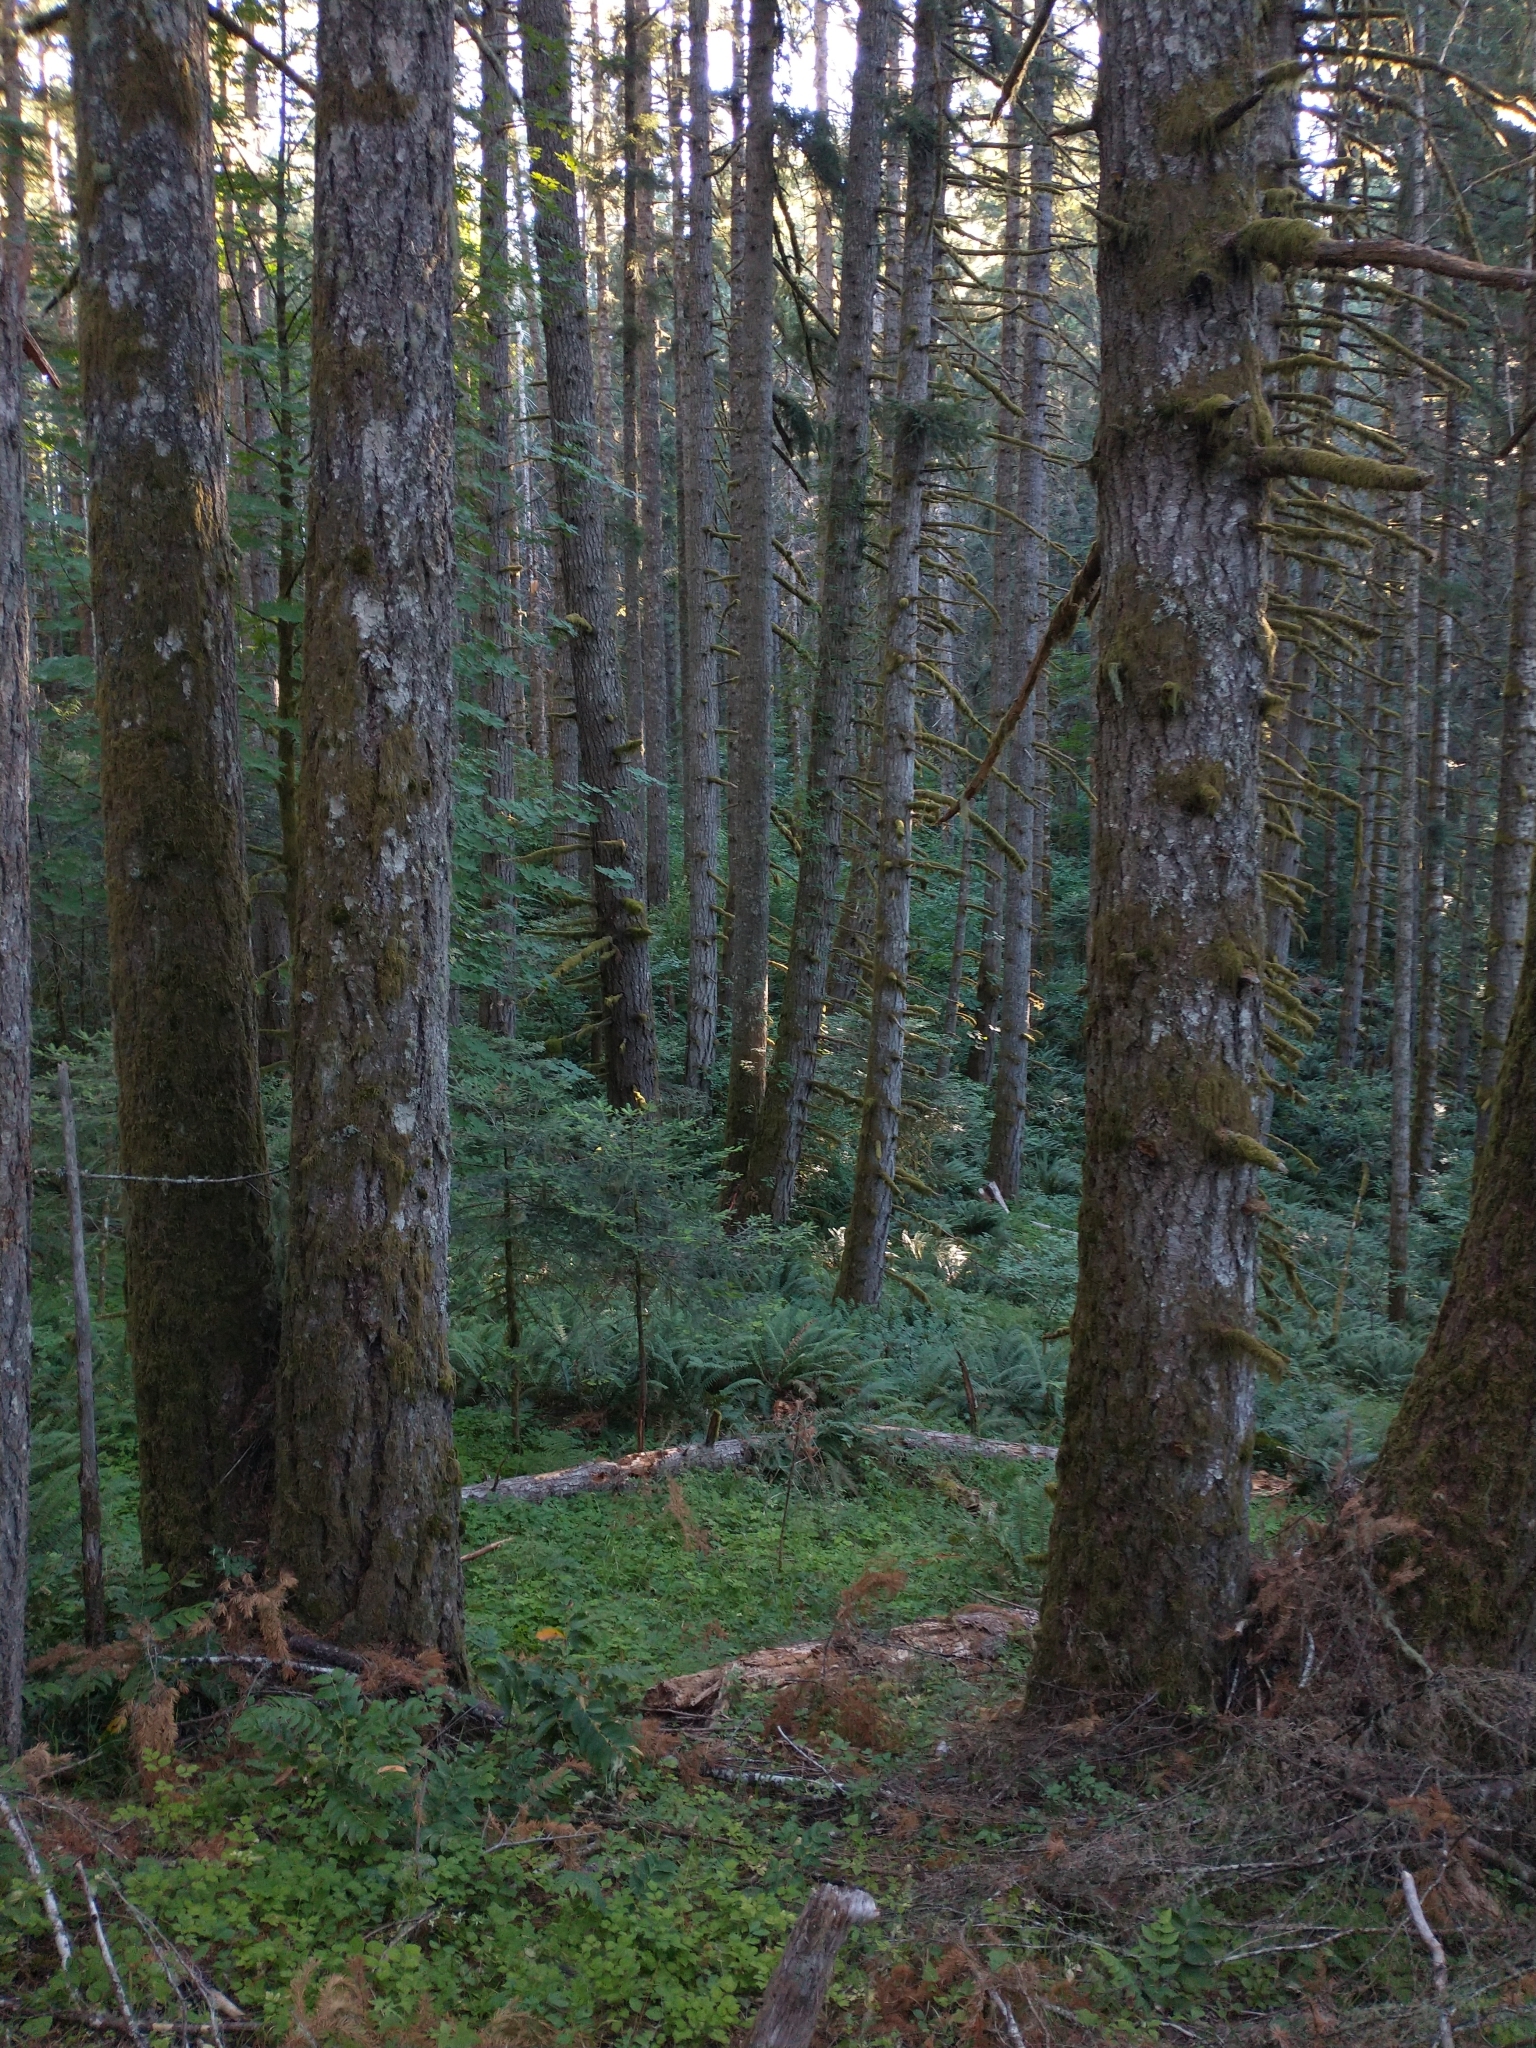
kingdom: Plantae
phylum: Tracheophyta
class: Pinopsida
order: Pinales
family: Pinaceae
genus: Pseudotsuga
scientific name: Pseudotsuga menziesii
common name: Douglas fir
